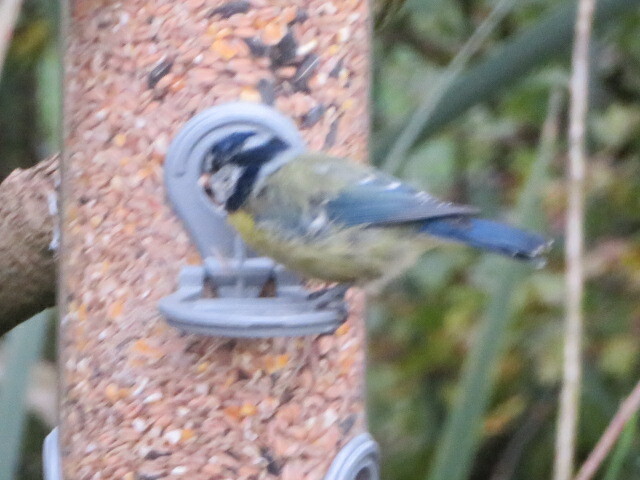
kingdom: Animalia
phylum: Chordata
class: Aves
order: Passeriformes
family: Paridae
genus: Cyanistes
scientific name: Cyanistes caeruleus
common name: Eurasian blue tit
